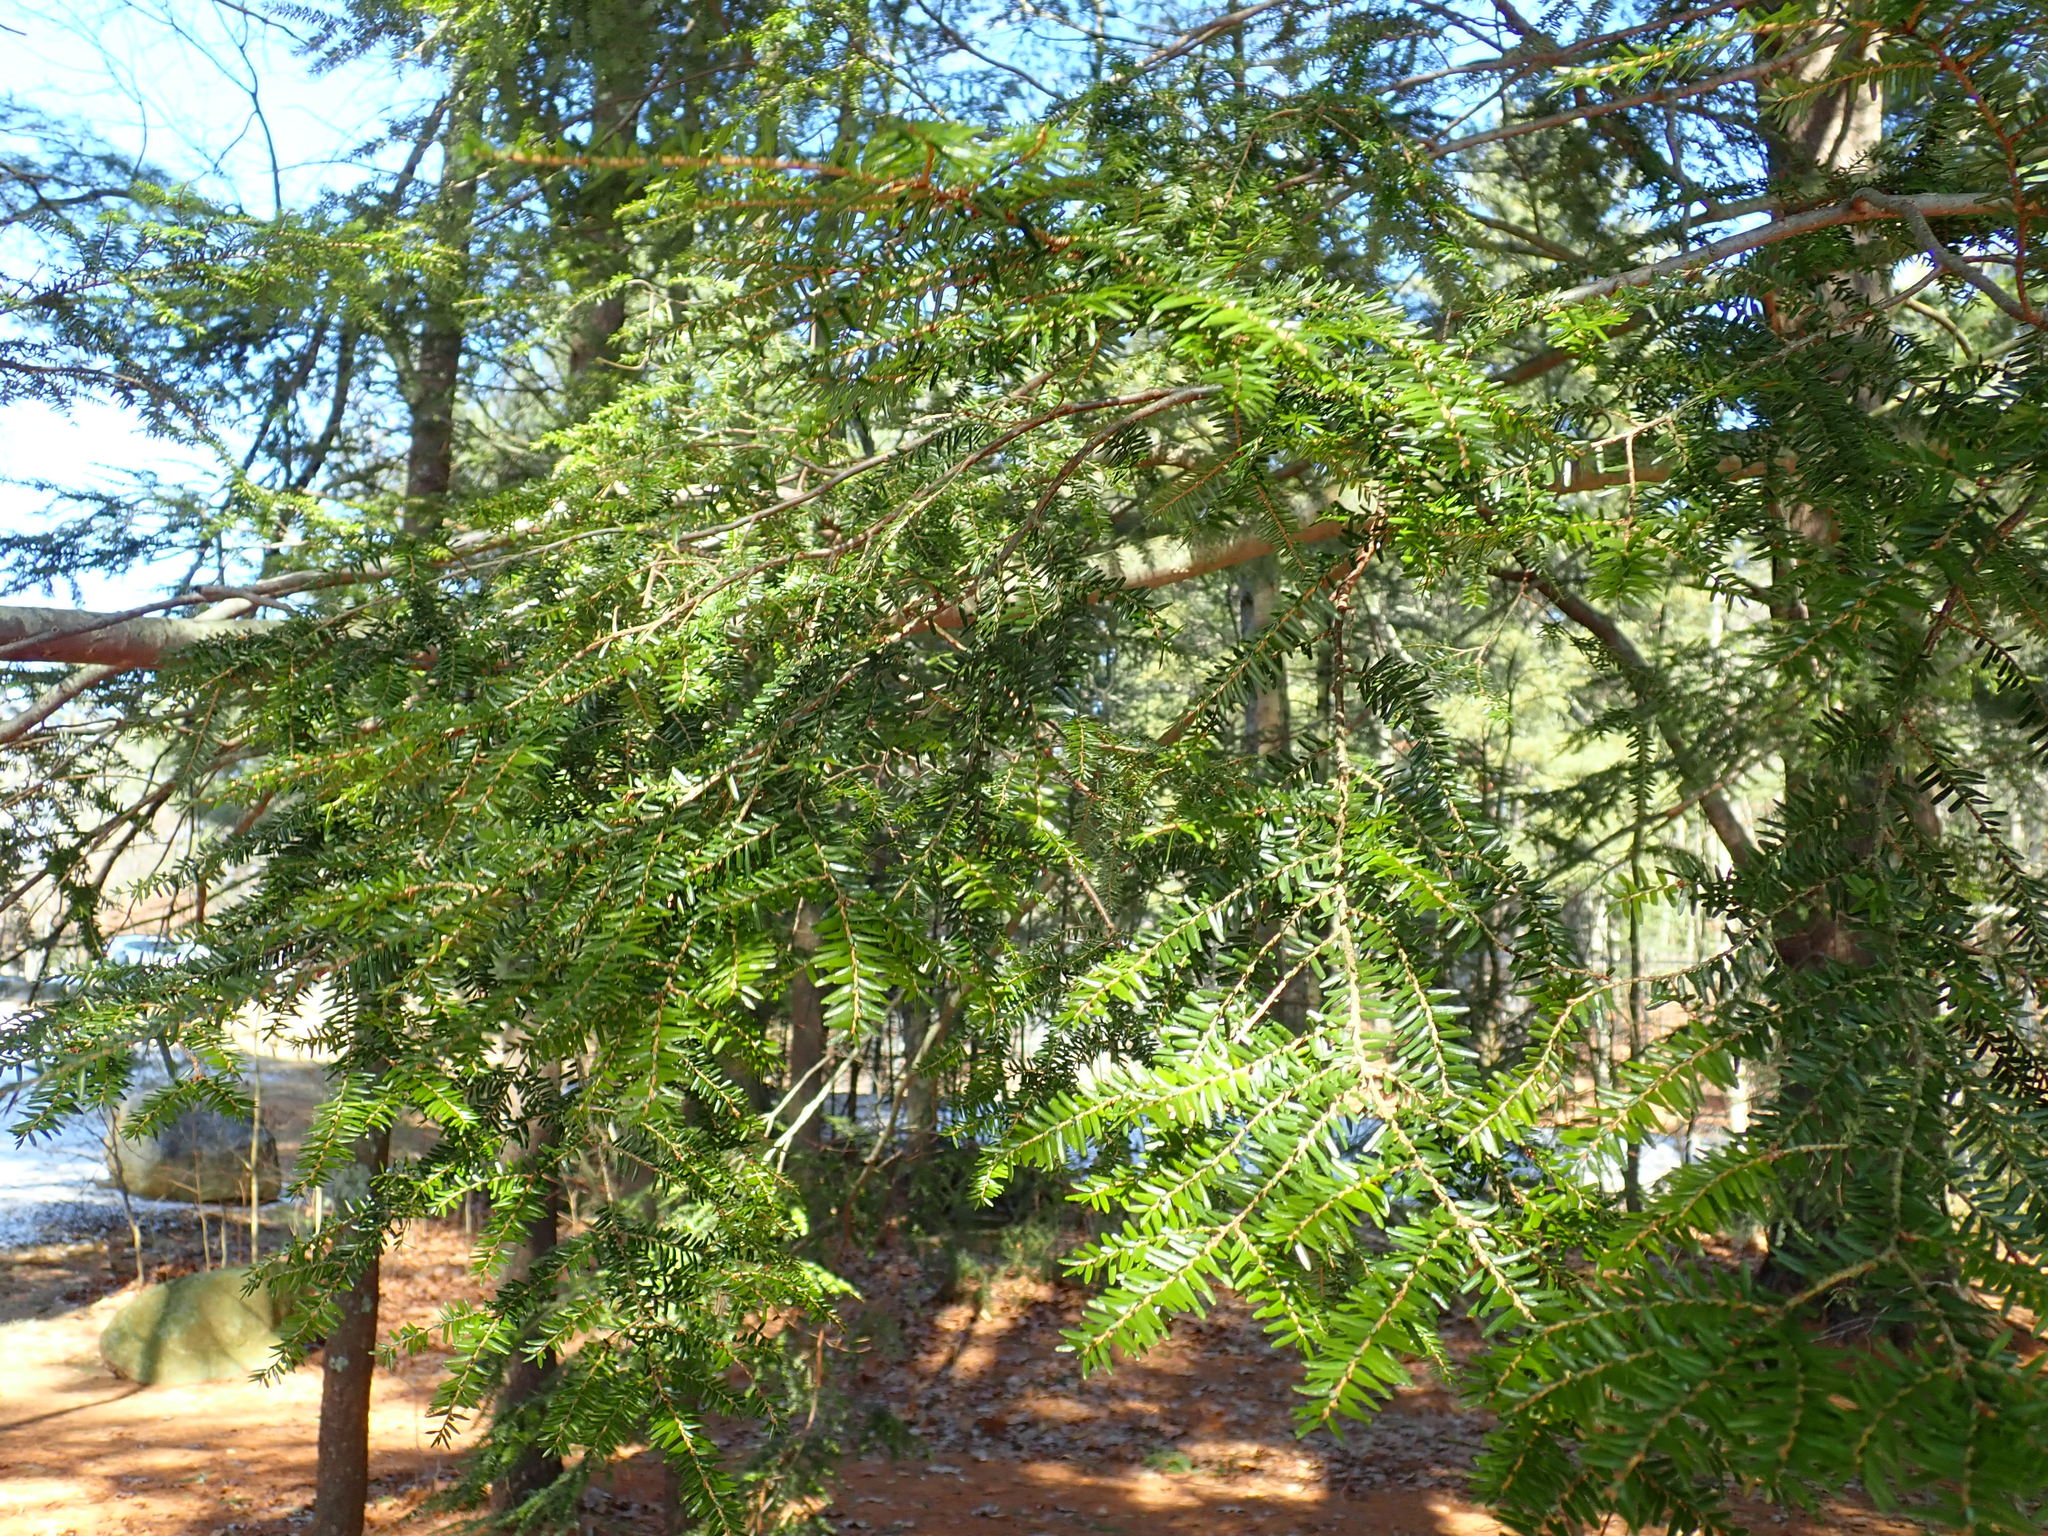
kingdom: Plantae
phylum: Tracheophyta
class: Pinopsida
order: Pinales
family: Pinaceae
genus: Tsuga
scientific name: Tsuga canadensis
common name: Eastern hemlock
